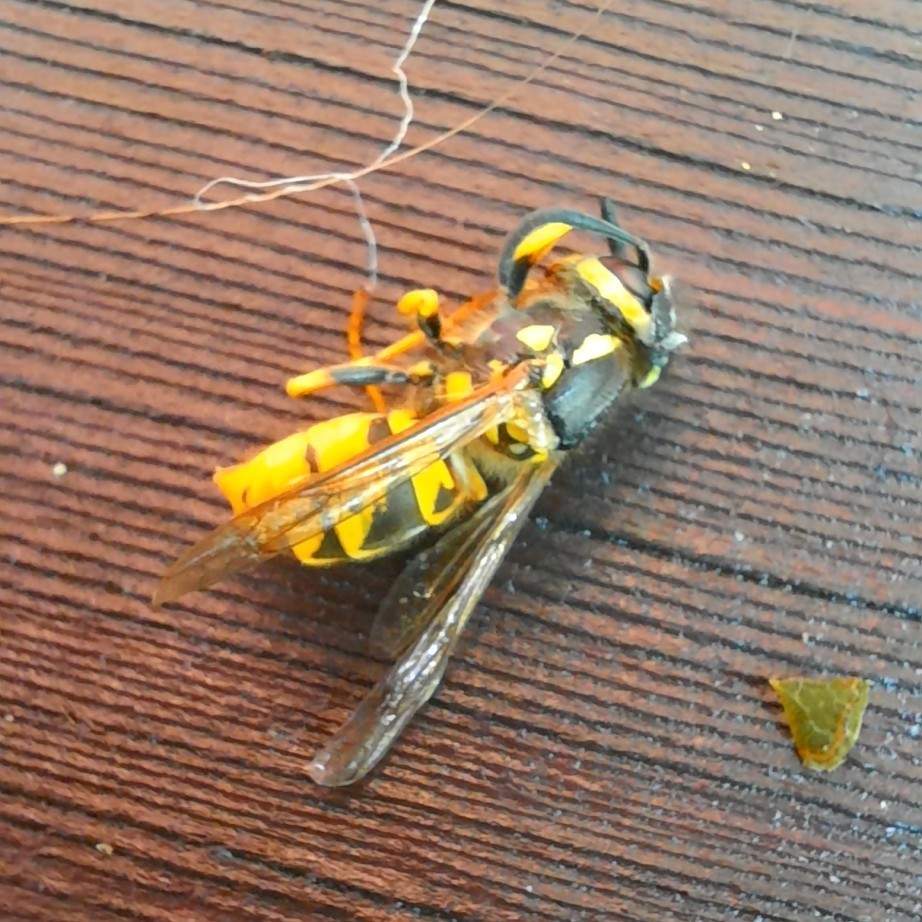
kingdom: Animalia
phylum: Arthropoda
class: Insecta
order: Hymenoptera
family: Vespidae
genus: Vespula
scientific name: Vespula germanica
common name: German wasp
